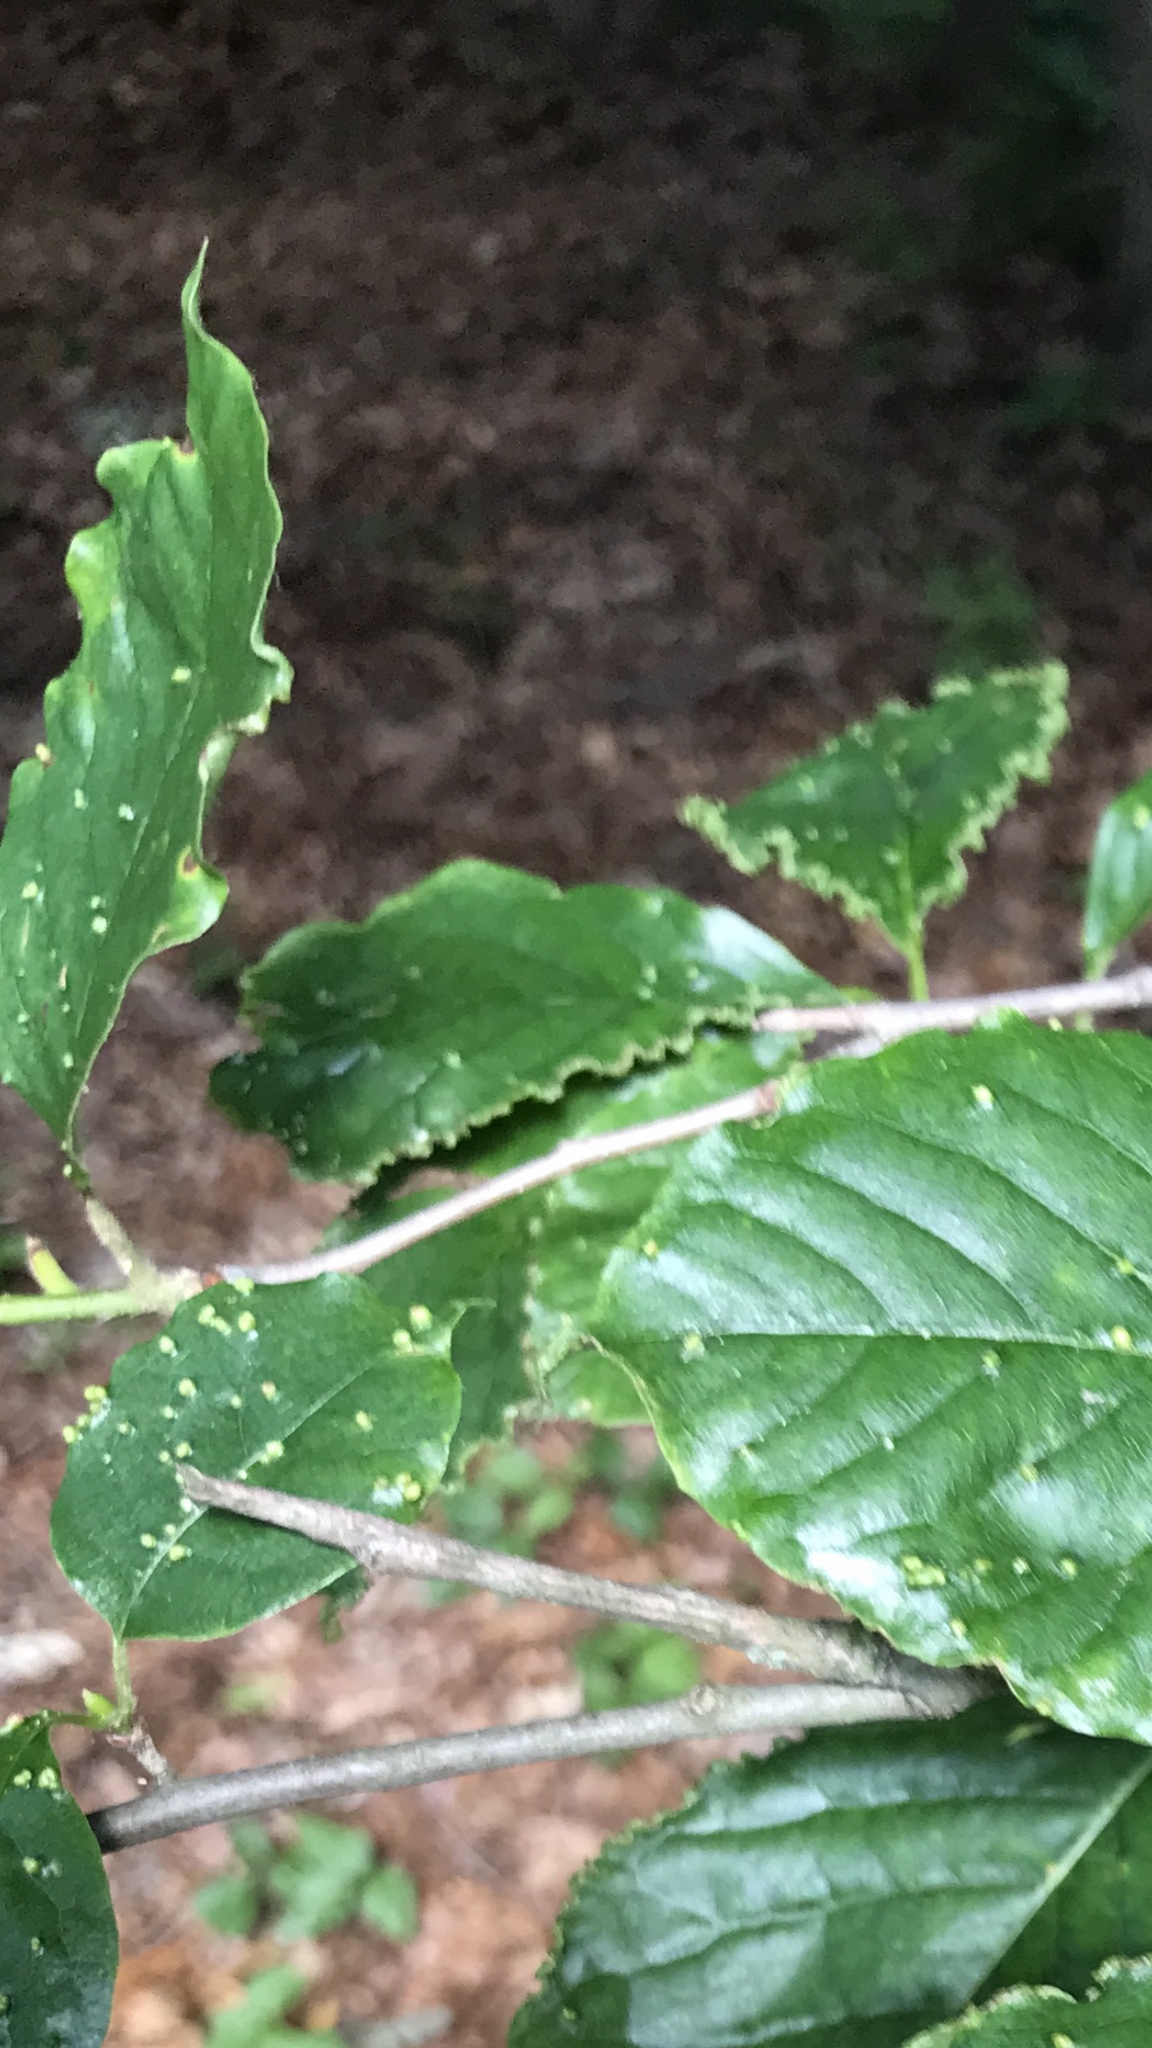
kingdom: Animalia
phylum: Arthropoda
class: Arachnida
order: Trombidiformes
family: Eriophyidae
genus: Aceria
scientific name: Aceria
